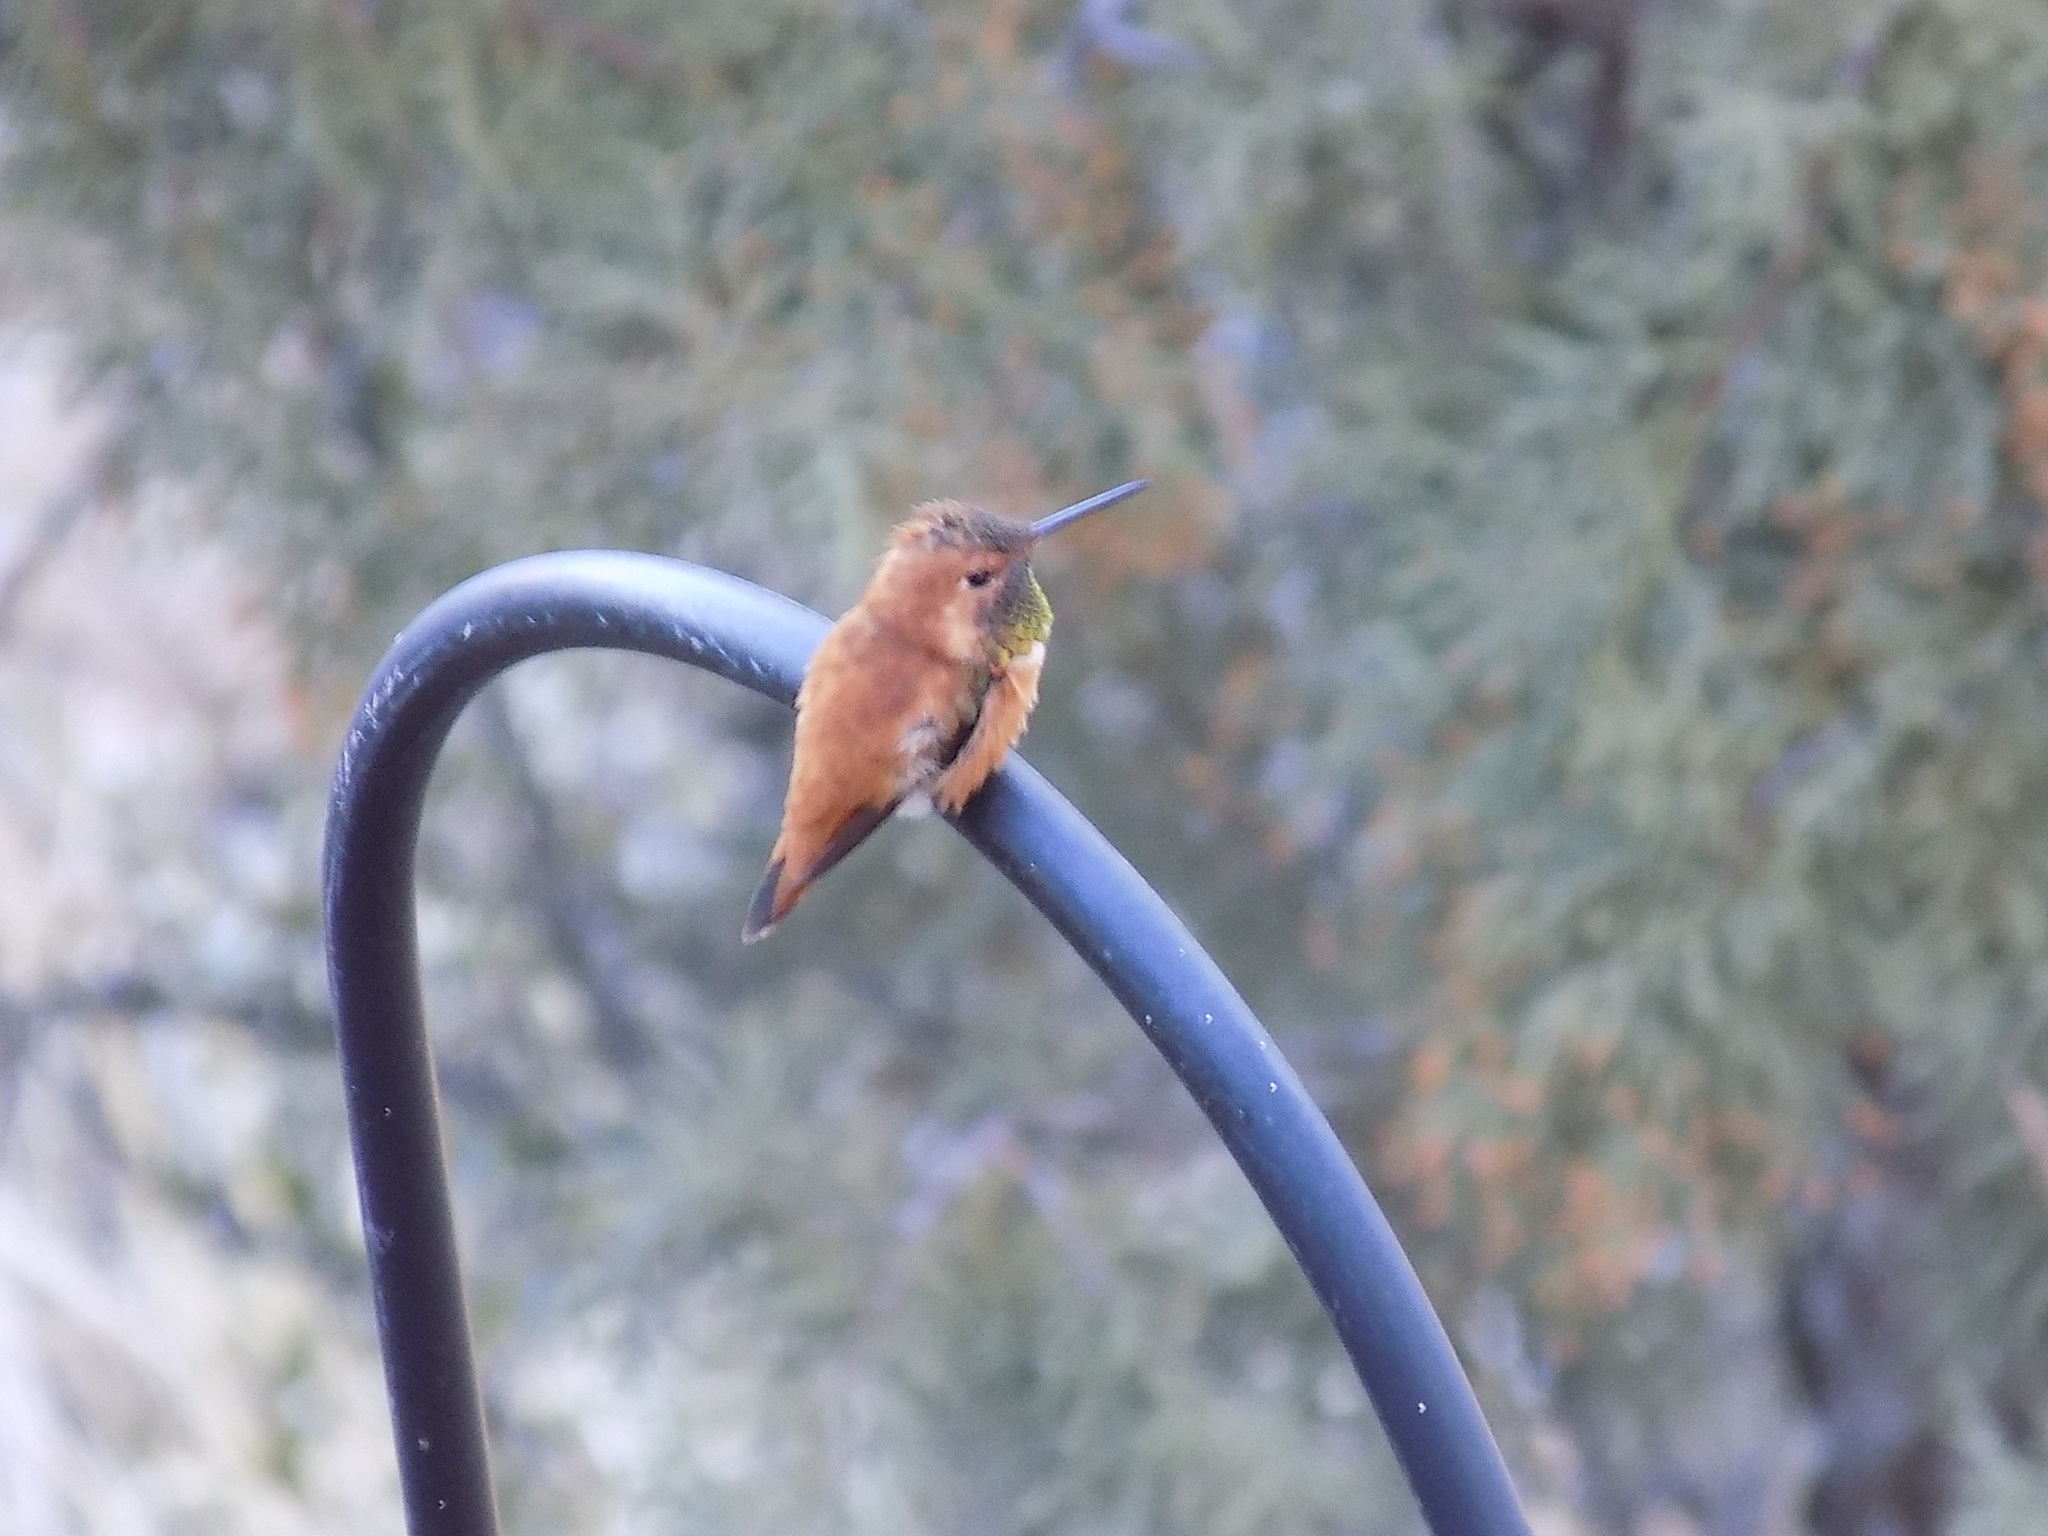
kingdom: Animalia
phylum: Chordata
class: Aves
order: Apodiformes
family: Trochilidae
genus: Selasphorus
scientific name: Selasphorus rufus
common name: Rufous hummingbird
